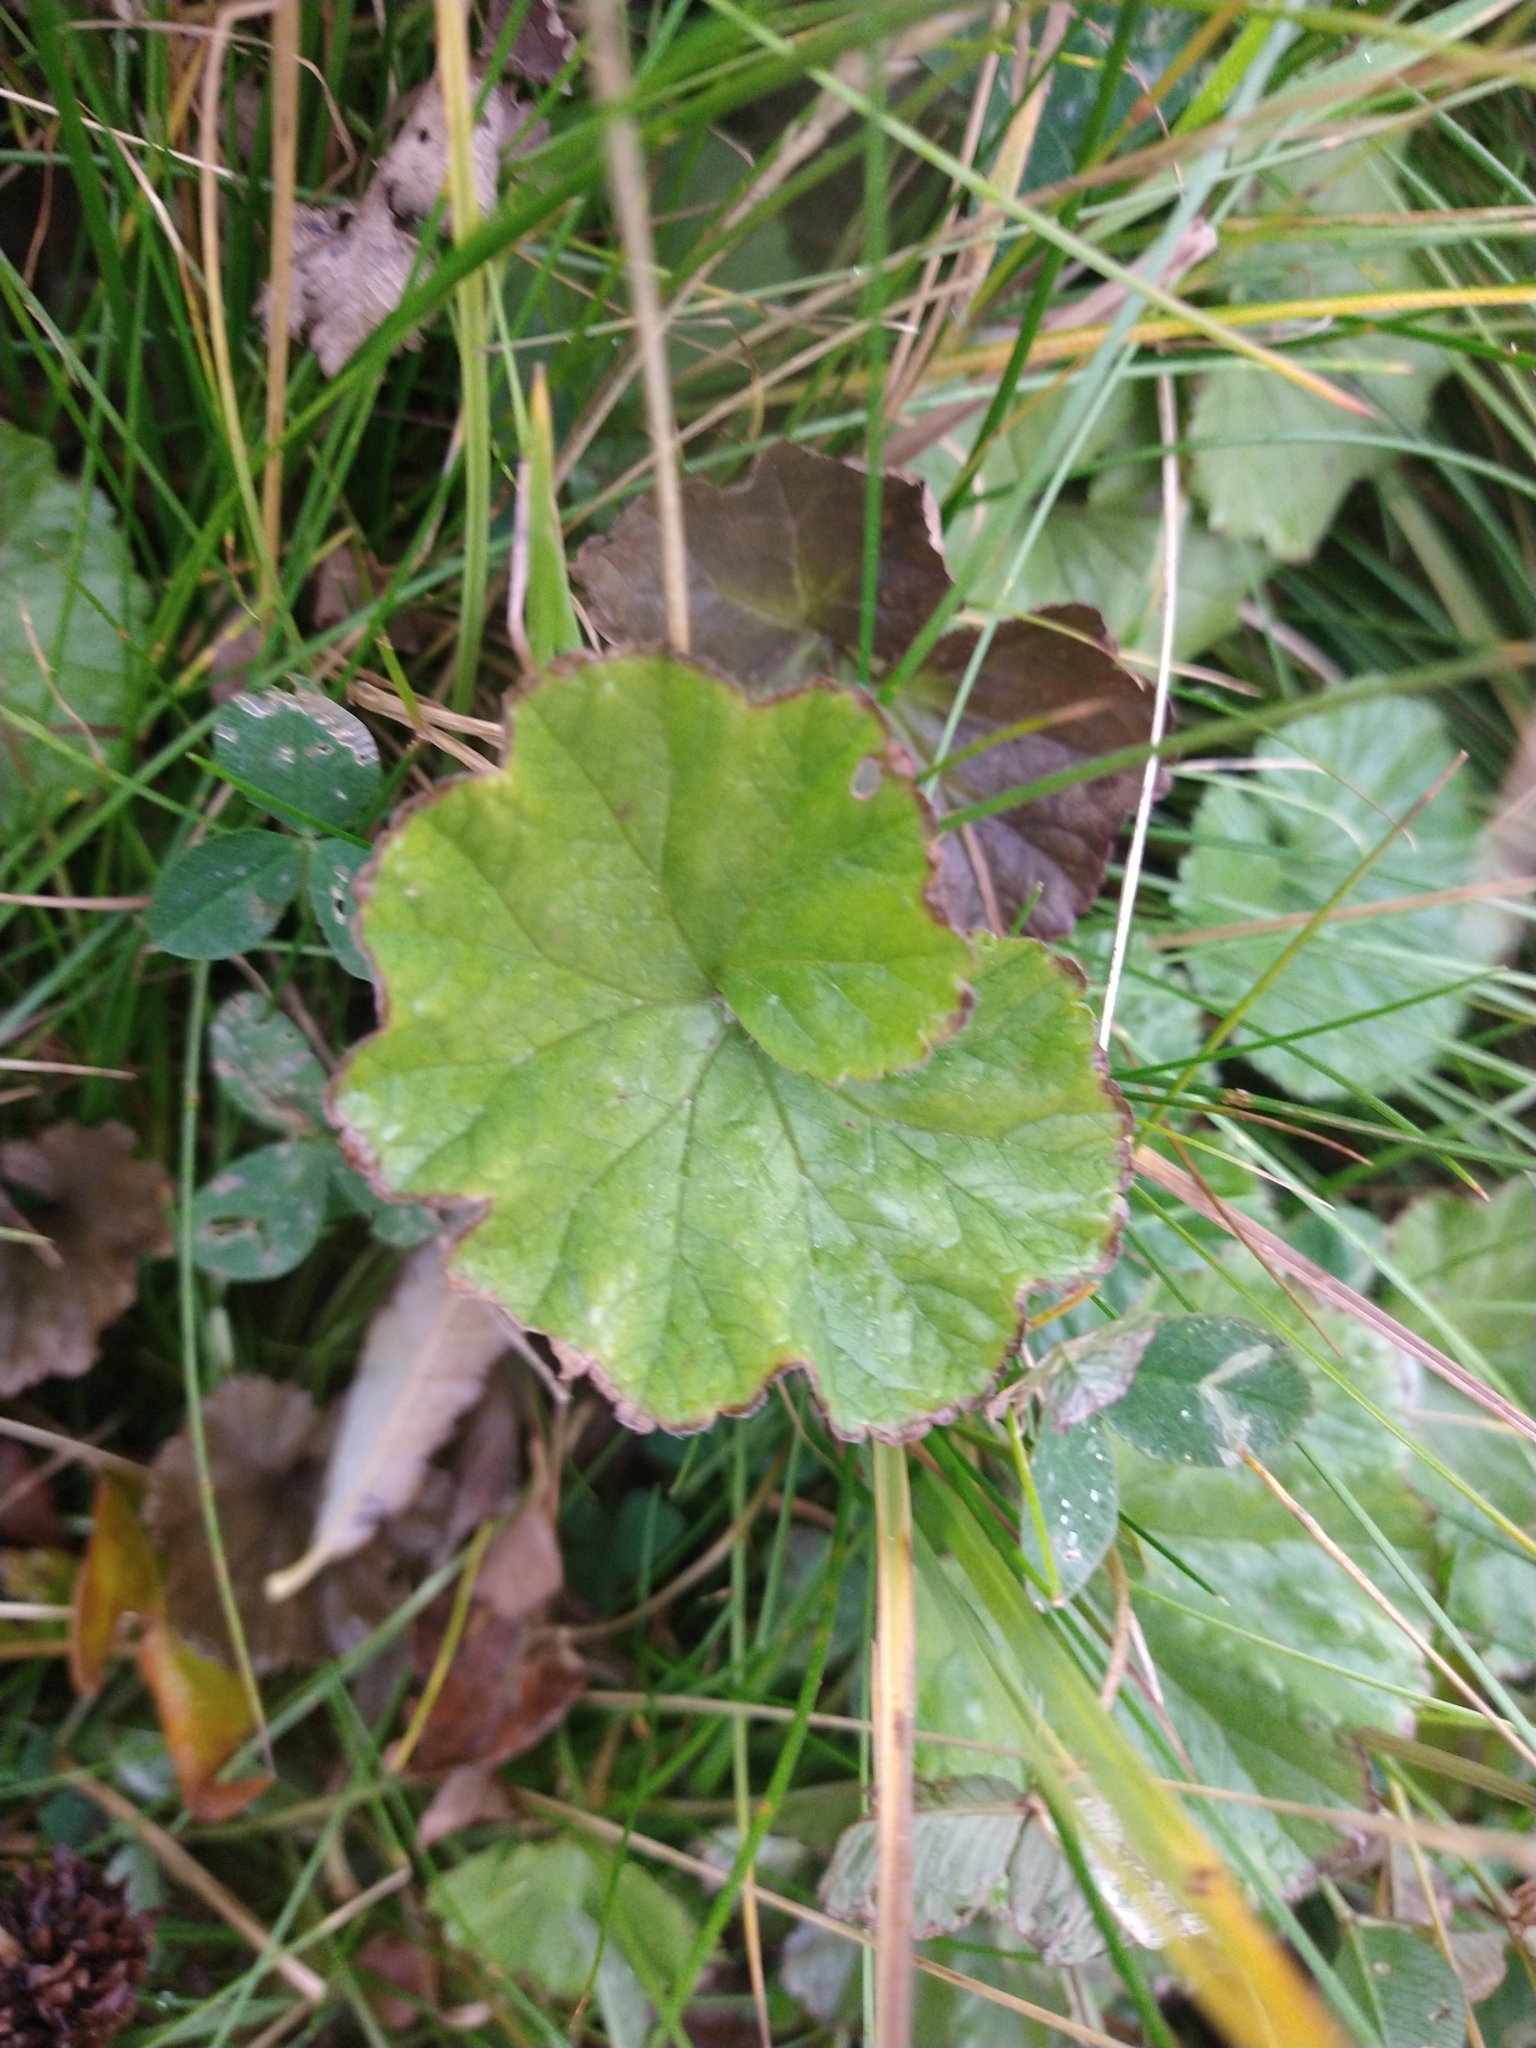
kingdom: Plantae
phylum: Tracheophyta
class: Magnoliopsida
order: Gunnerales
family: Gunneraceae
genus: Gunnera
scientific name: Gunnera magellanica
